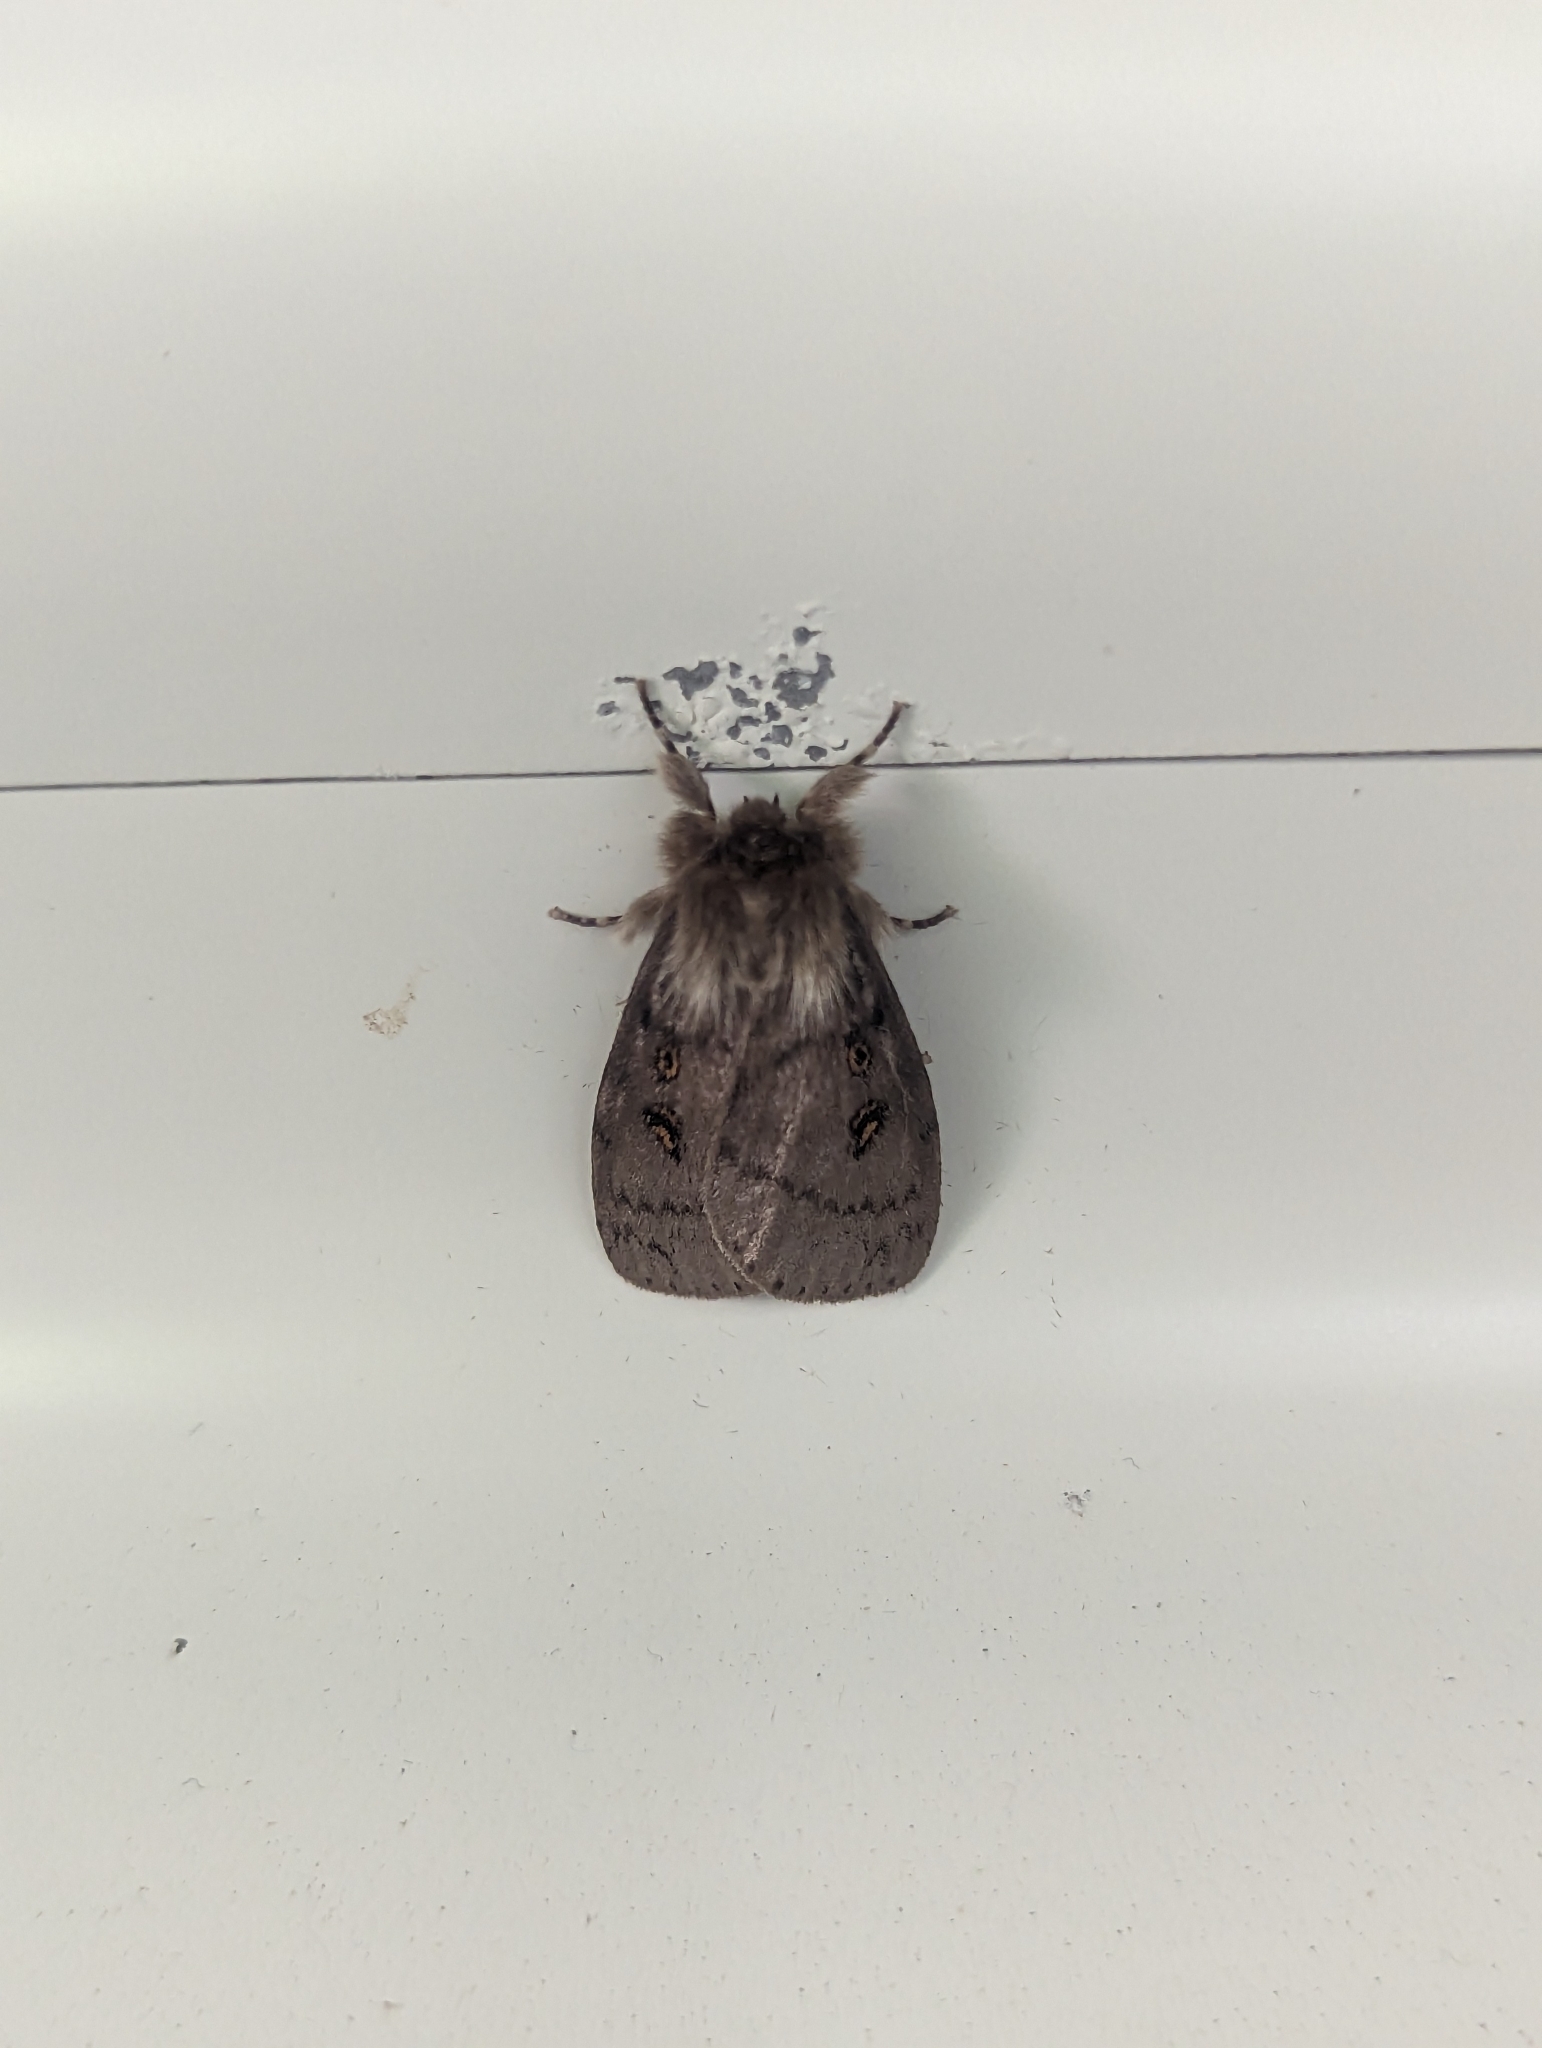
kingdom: Animalia
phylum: Arthropoda
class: Insecta
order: Lepidoptera
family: Erebidae
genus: Leptocneria
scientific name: Leptocneria reducta
